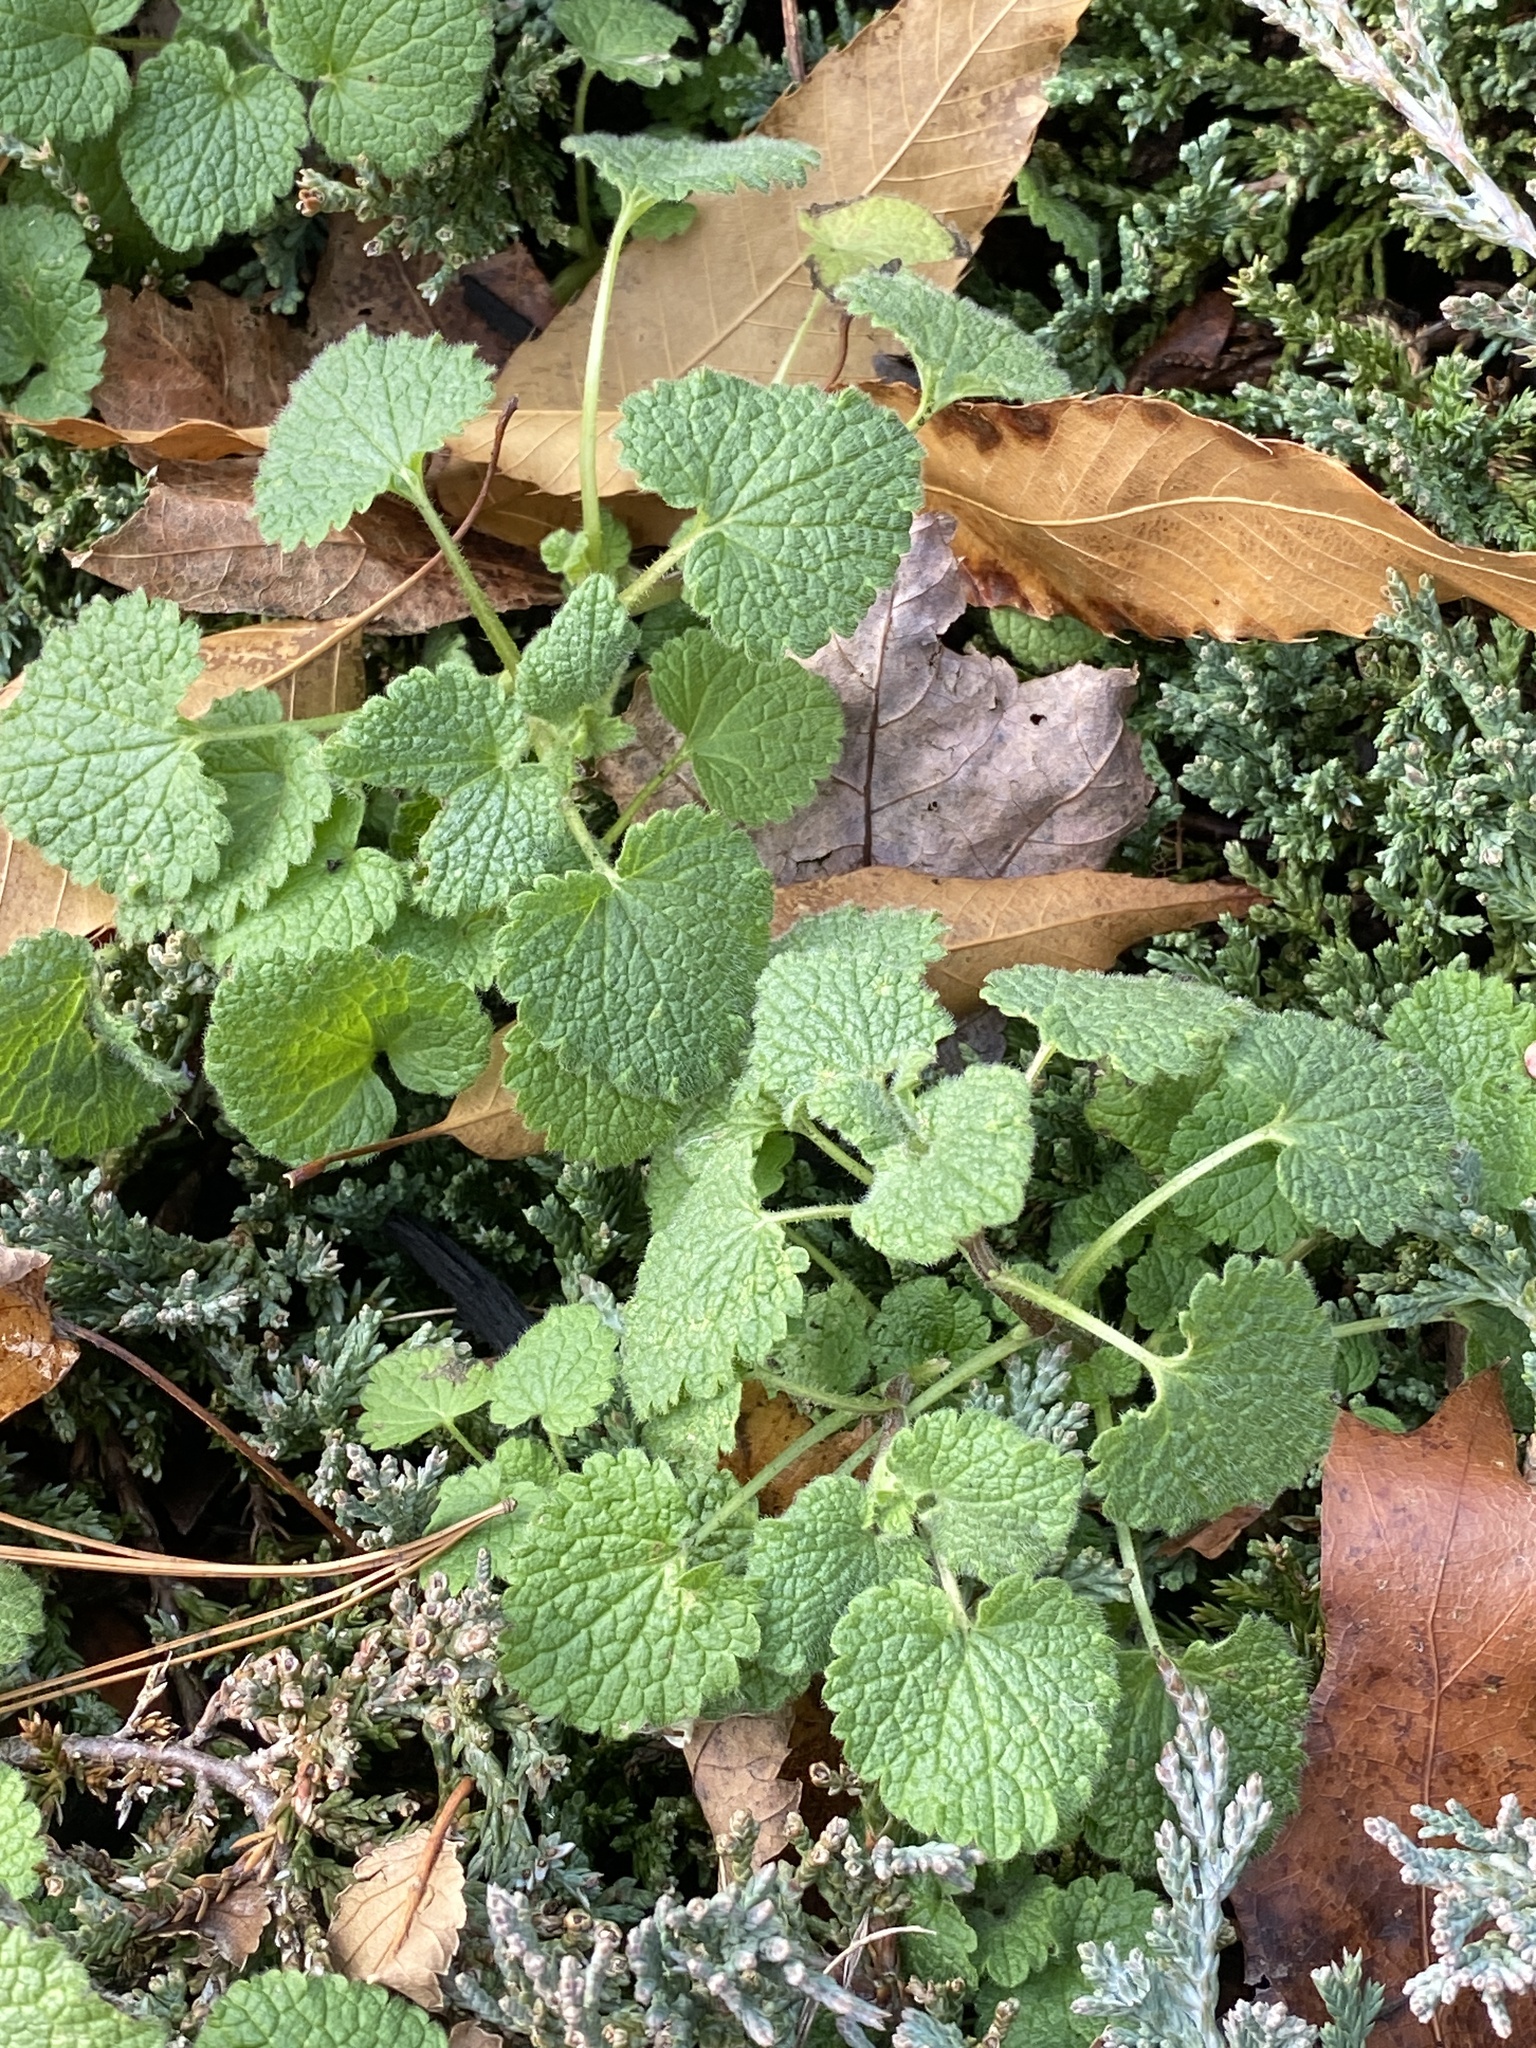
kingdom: Plantae
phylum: Tracheophyta
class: Magnoliopsida
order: Lamiales
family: Lamiaceae
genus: Lamium
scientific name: Lamium purpureum
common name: Red dead-nettle
